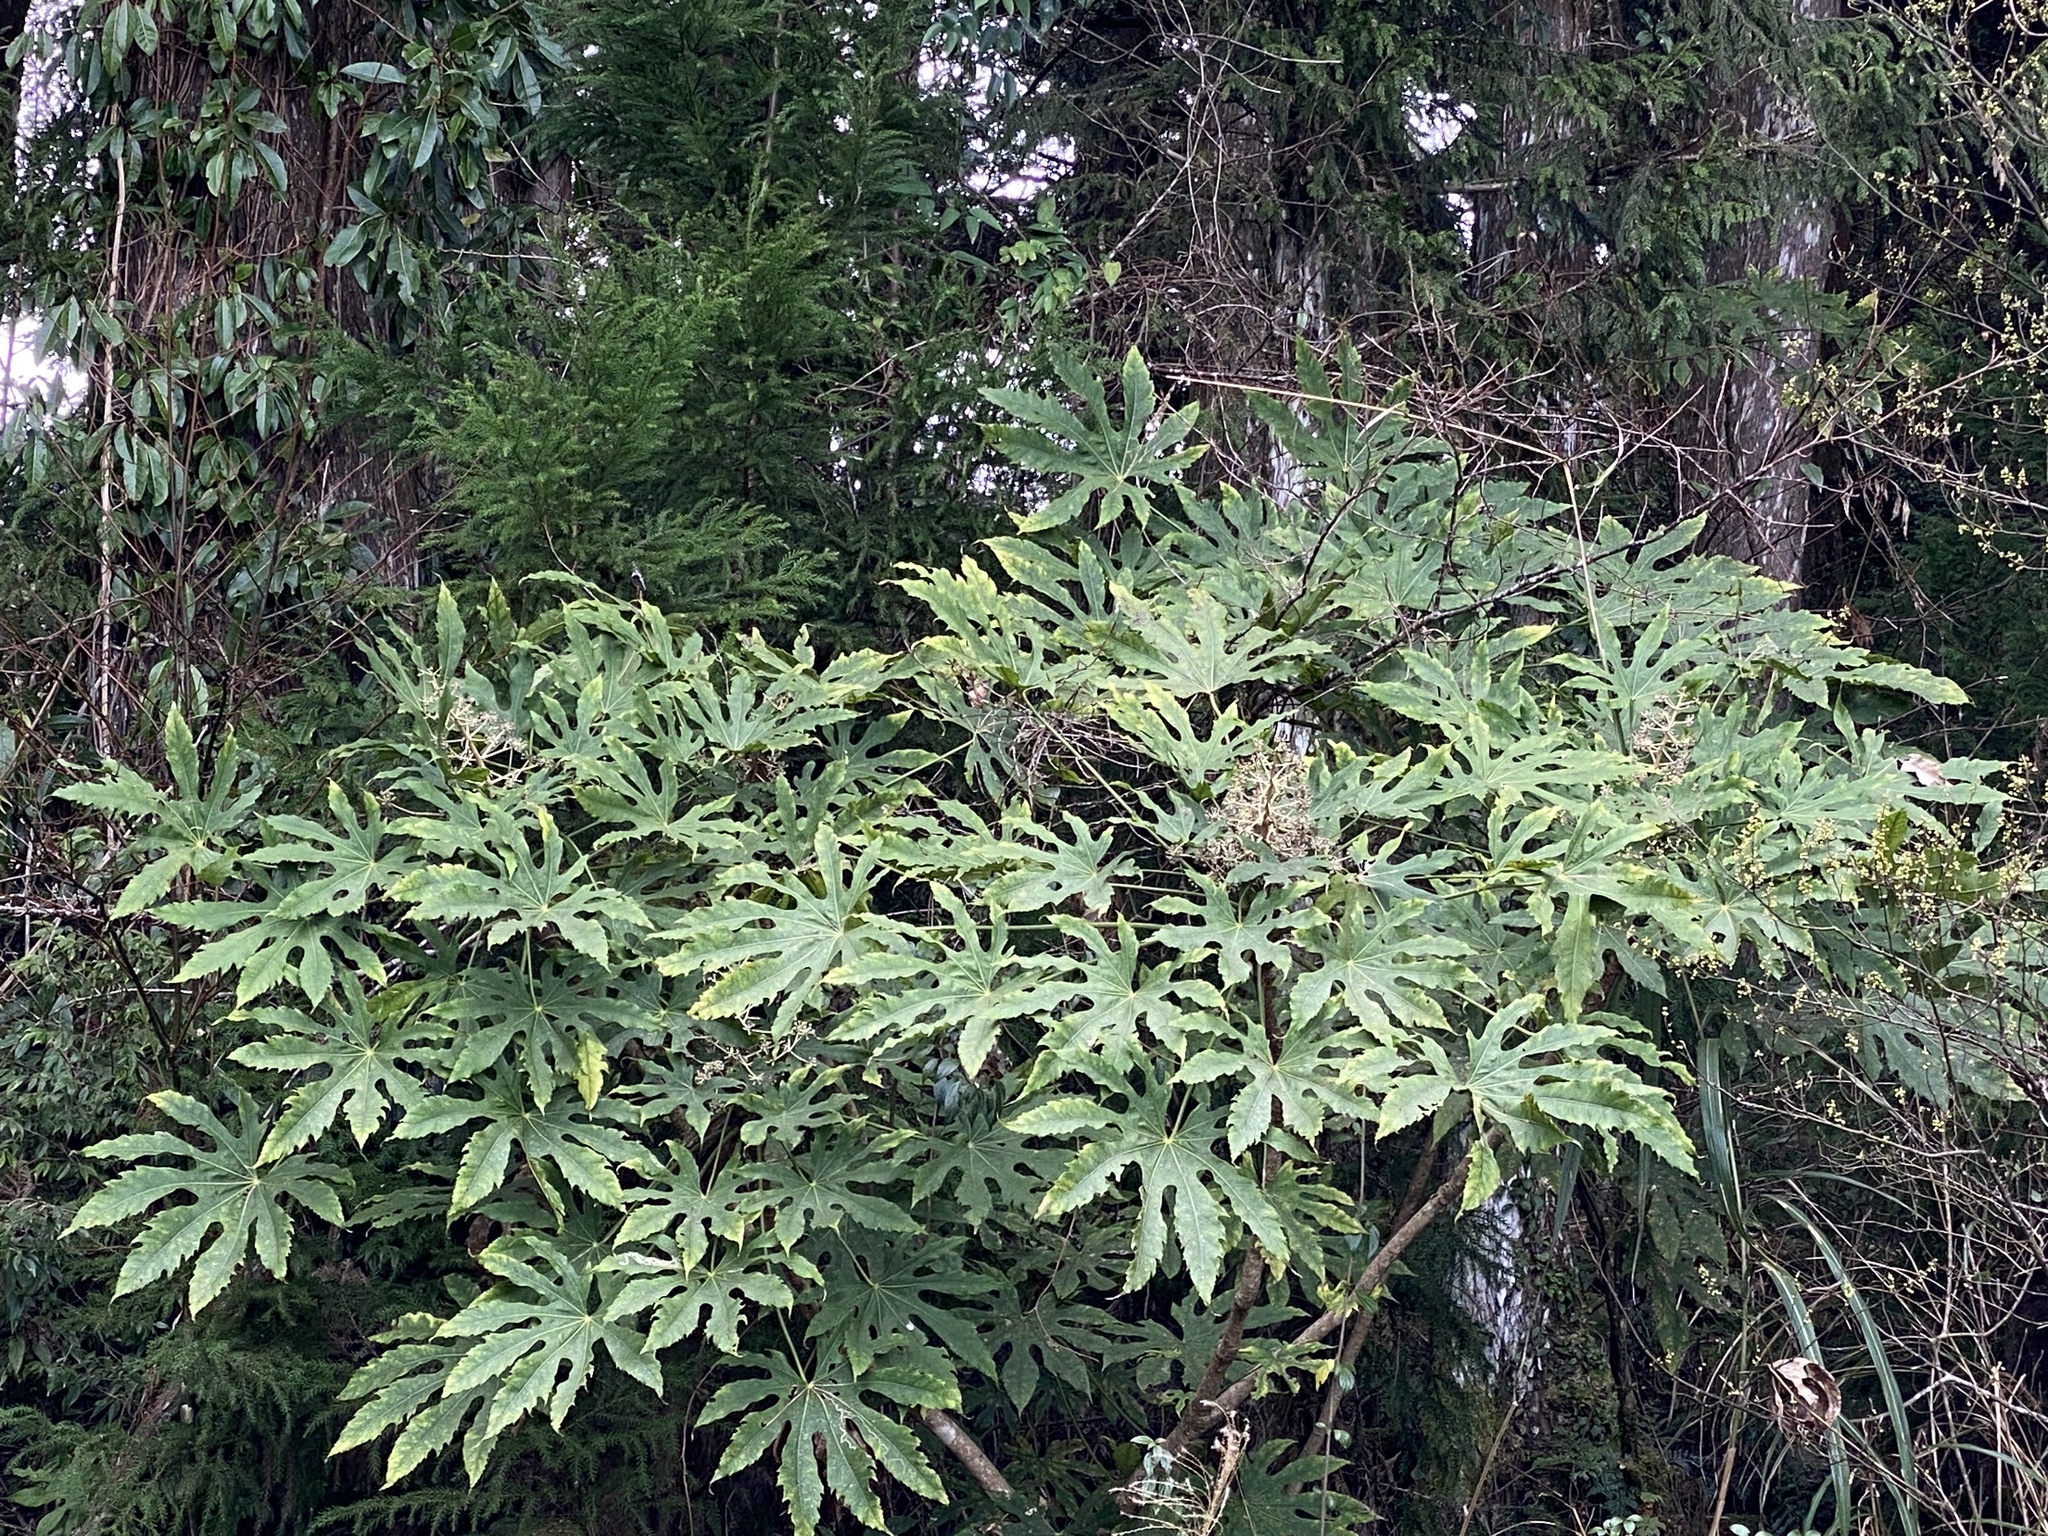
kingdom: Plantae
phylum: Tracheophyta
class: Magnoliopsida
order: Apiales
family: Araliaceae
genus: Fatsia
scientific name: Fatsia polycarpa
